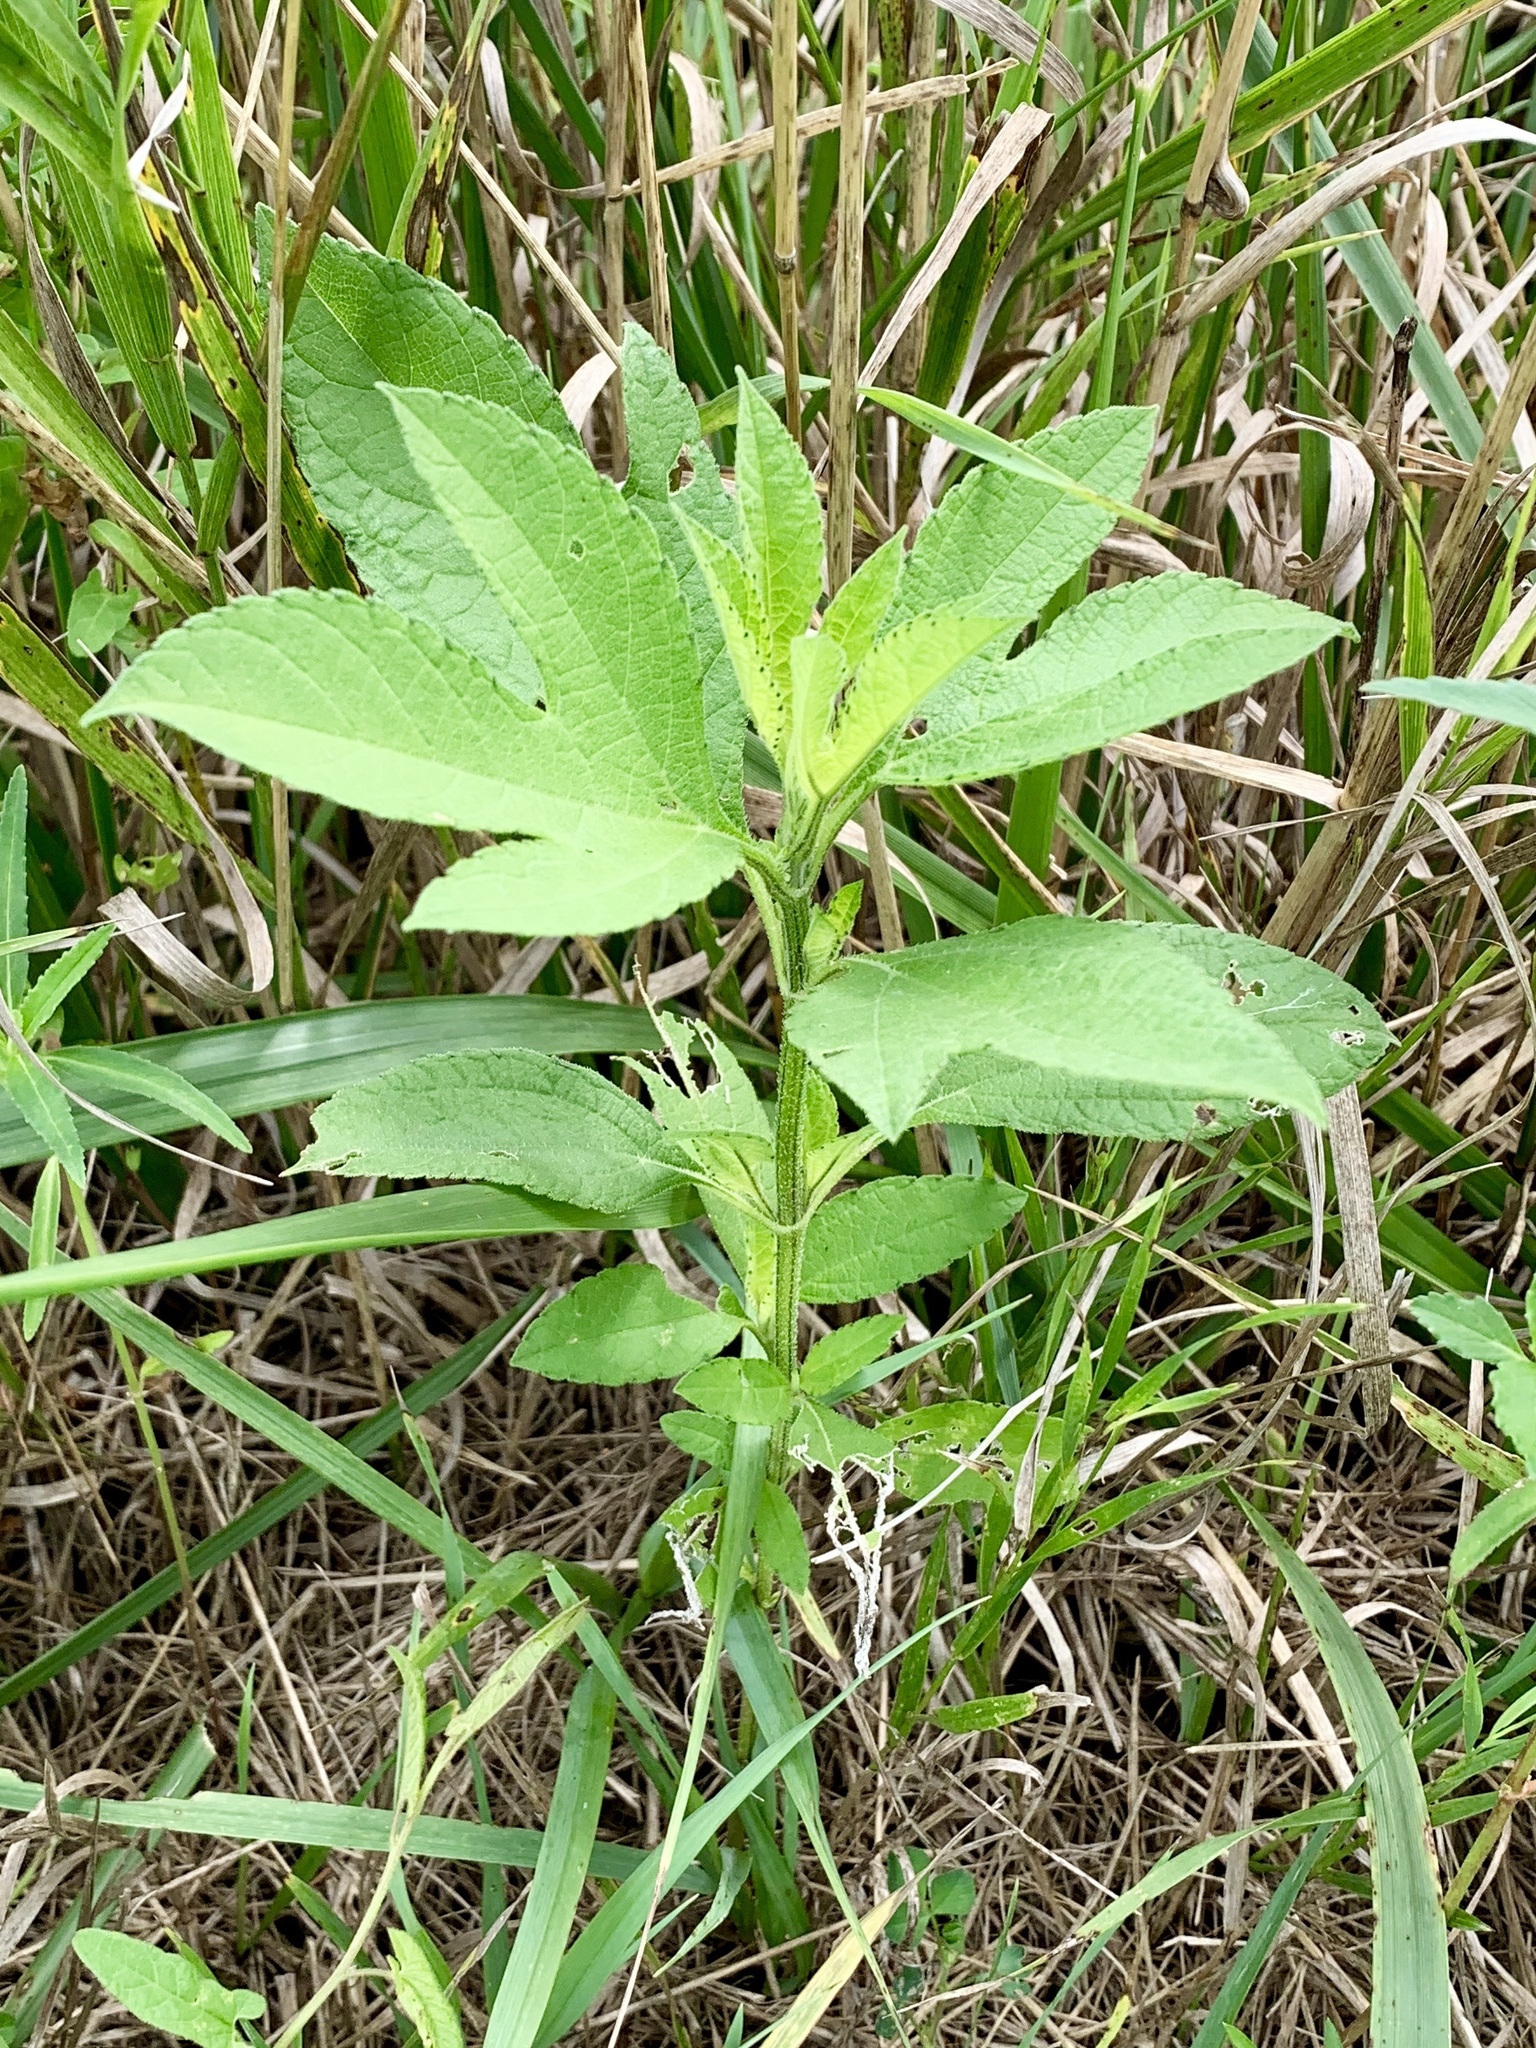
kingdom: Plantae
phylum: Tracheophyta
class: Magnoliopsida
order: Asterales
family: Asteraceae
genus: Ambrosia
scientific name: Ambrosia trifida
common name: Giant ragweed
